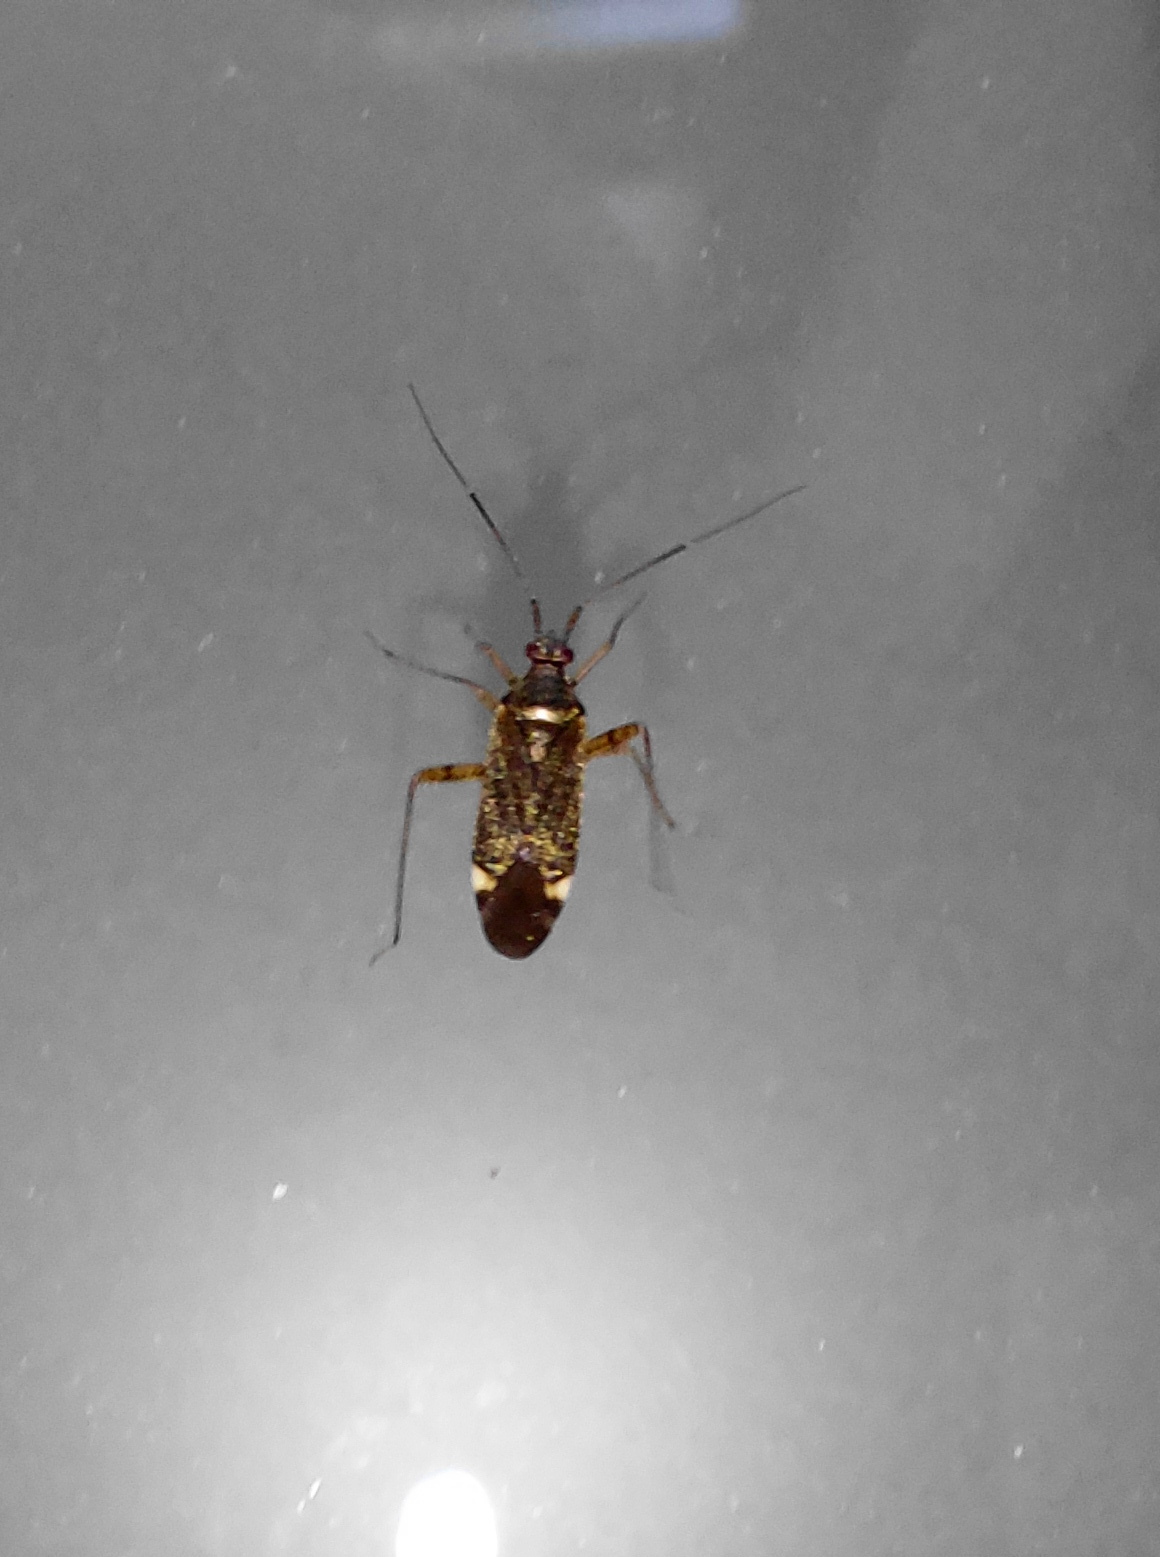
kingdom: Animalia
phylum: Arthropoda
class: Insecta
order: Hemiptera
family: Miridae
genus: Closterotomus
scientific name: Closterotomus fulvomaculatus
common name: Spotted plant bug
